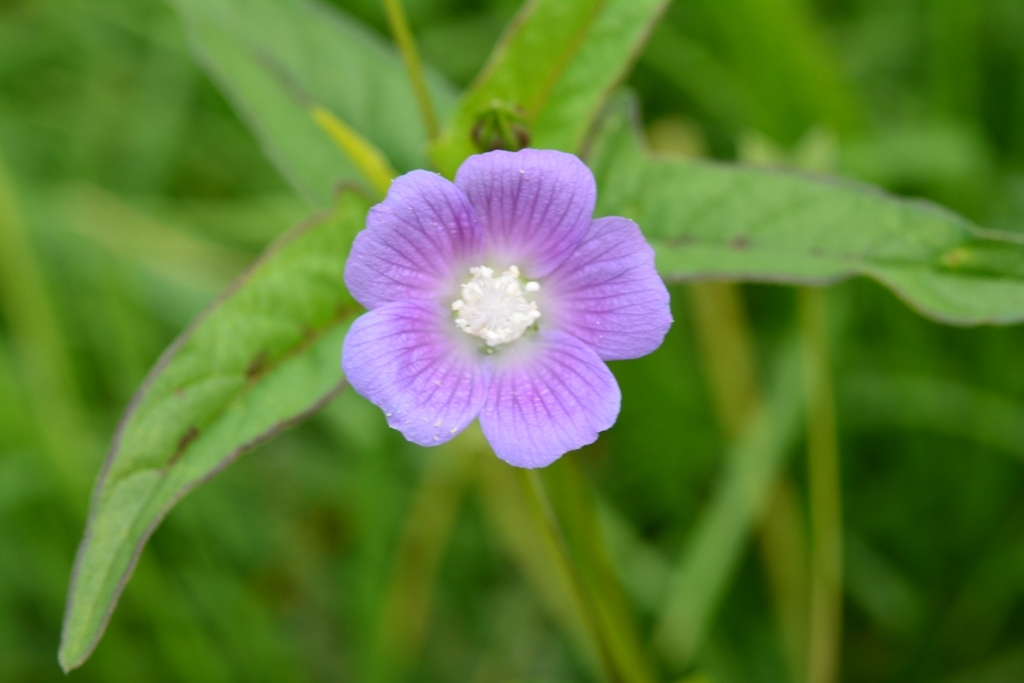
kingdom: Plantae
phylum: Tracheophyta
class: Magnoliopsida
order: Malvales
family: Malvaceae
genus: Anoda
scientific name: Anoda cristata
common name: Spurred anoda
